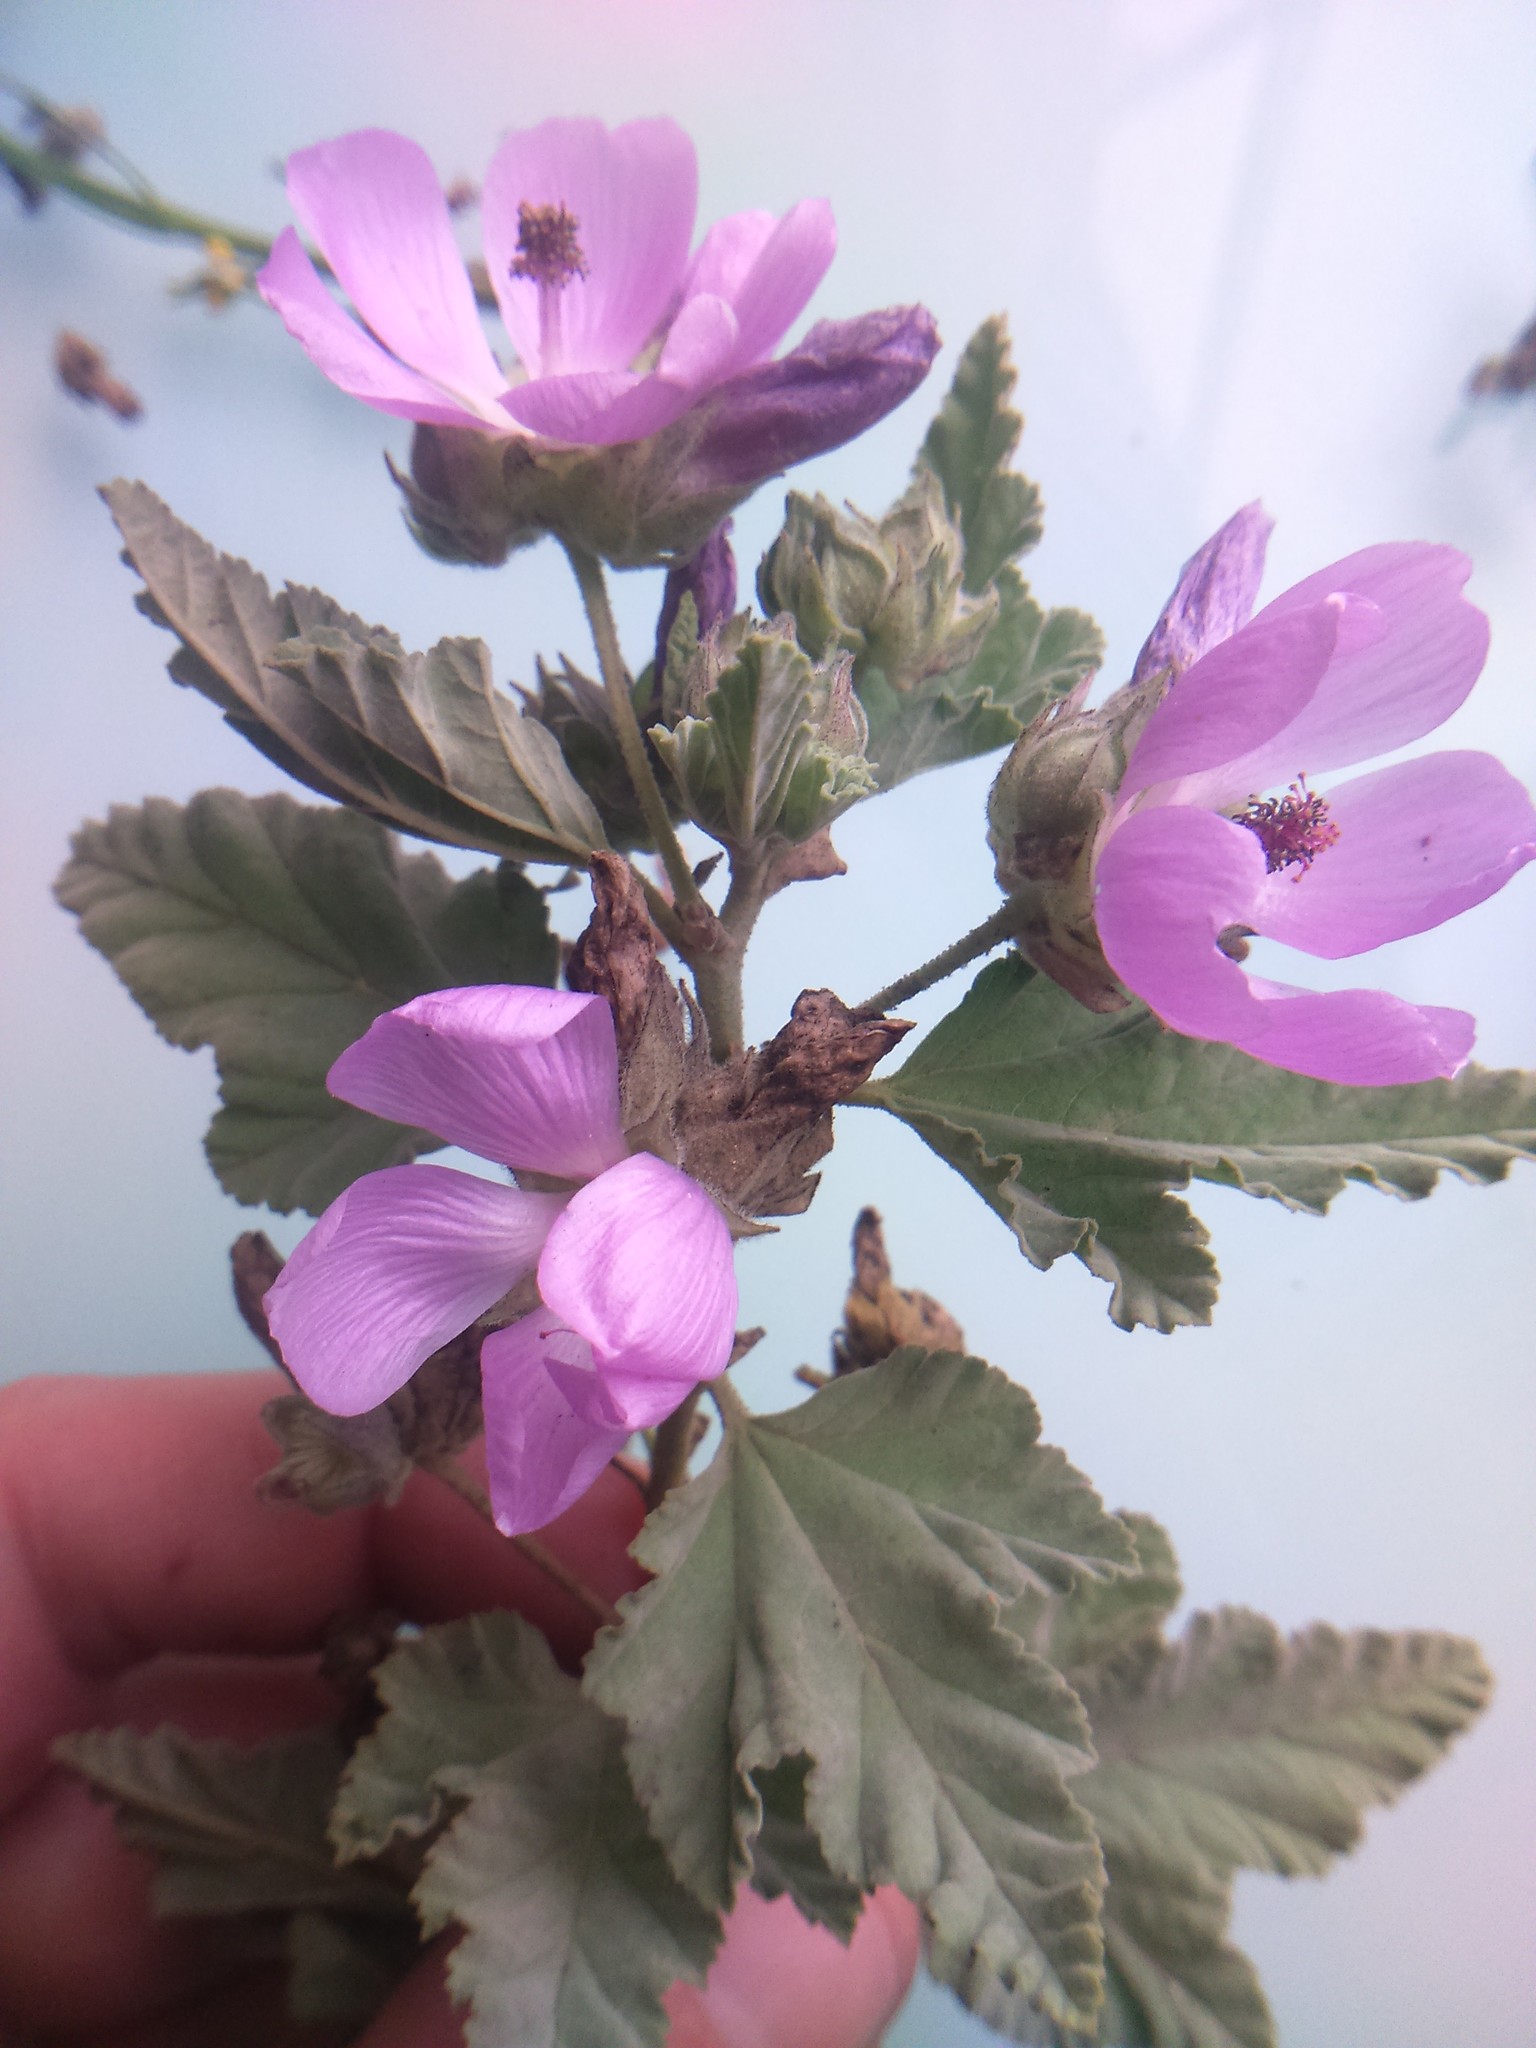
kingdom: Plantae
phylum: Tracheophyta
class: Magnoliopsida
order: Malvales
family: Malvaceae
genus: Tarasa
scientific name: Tarasa capitata
